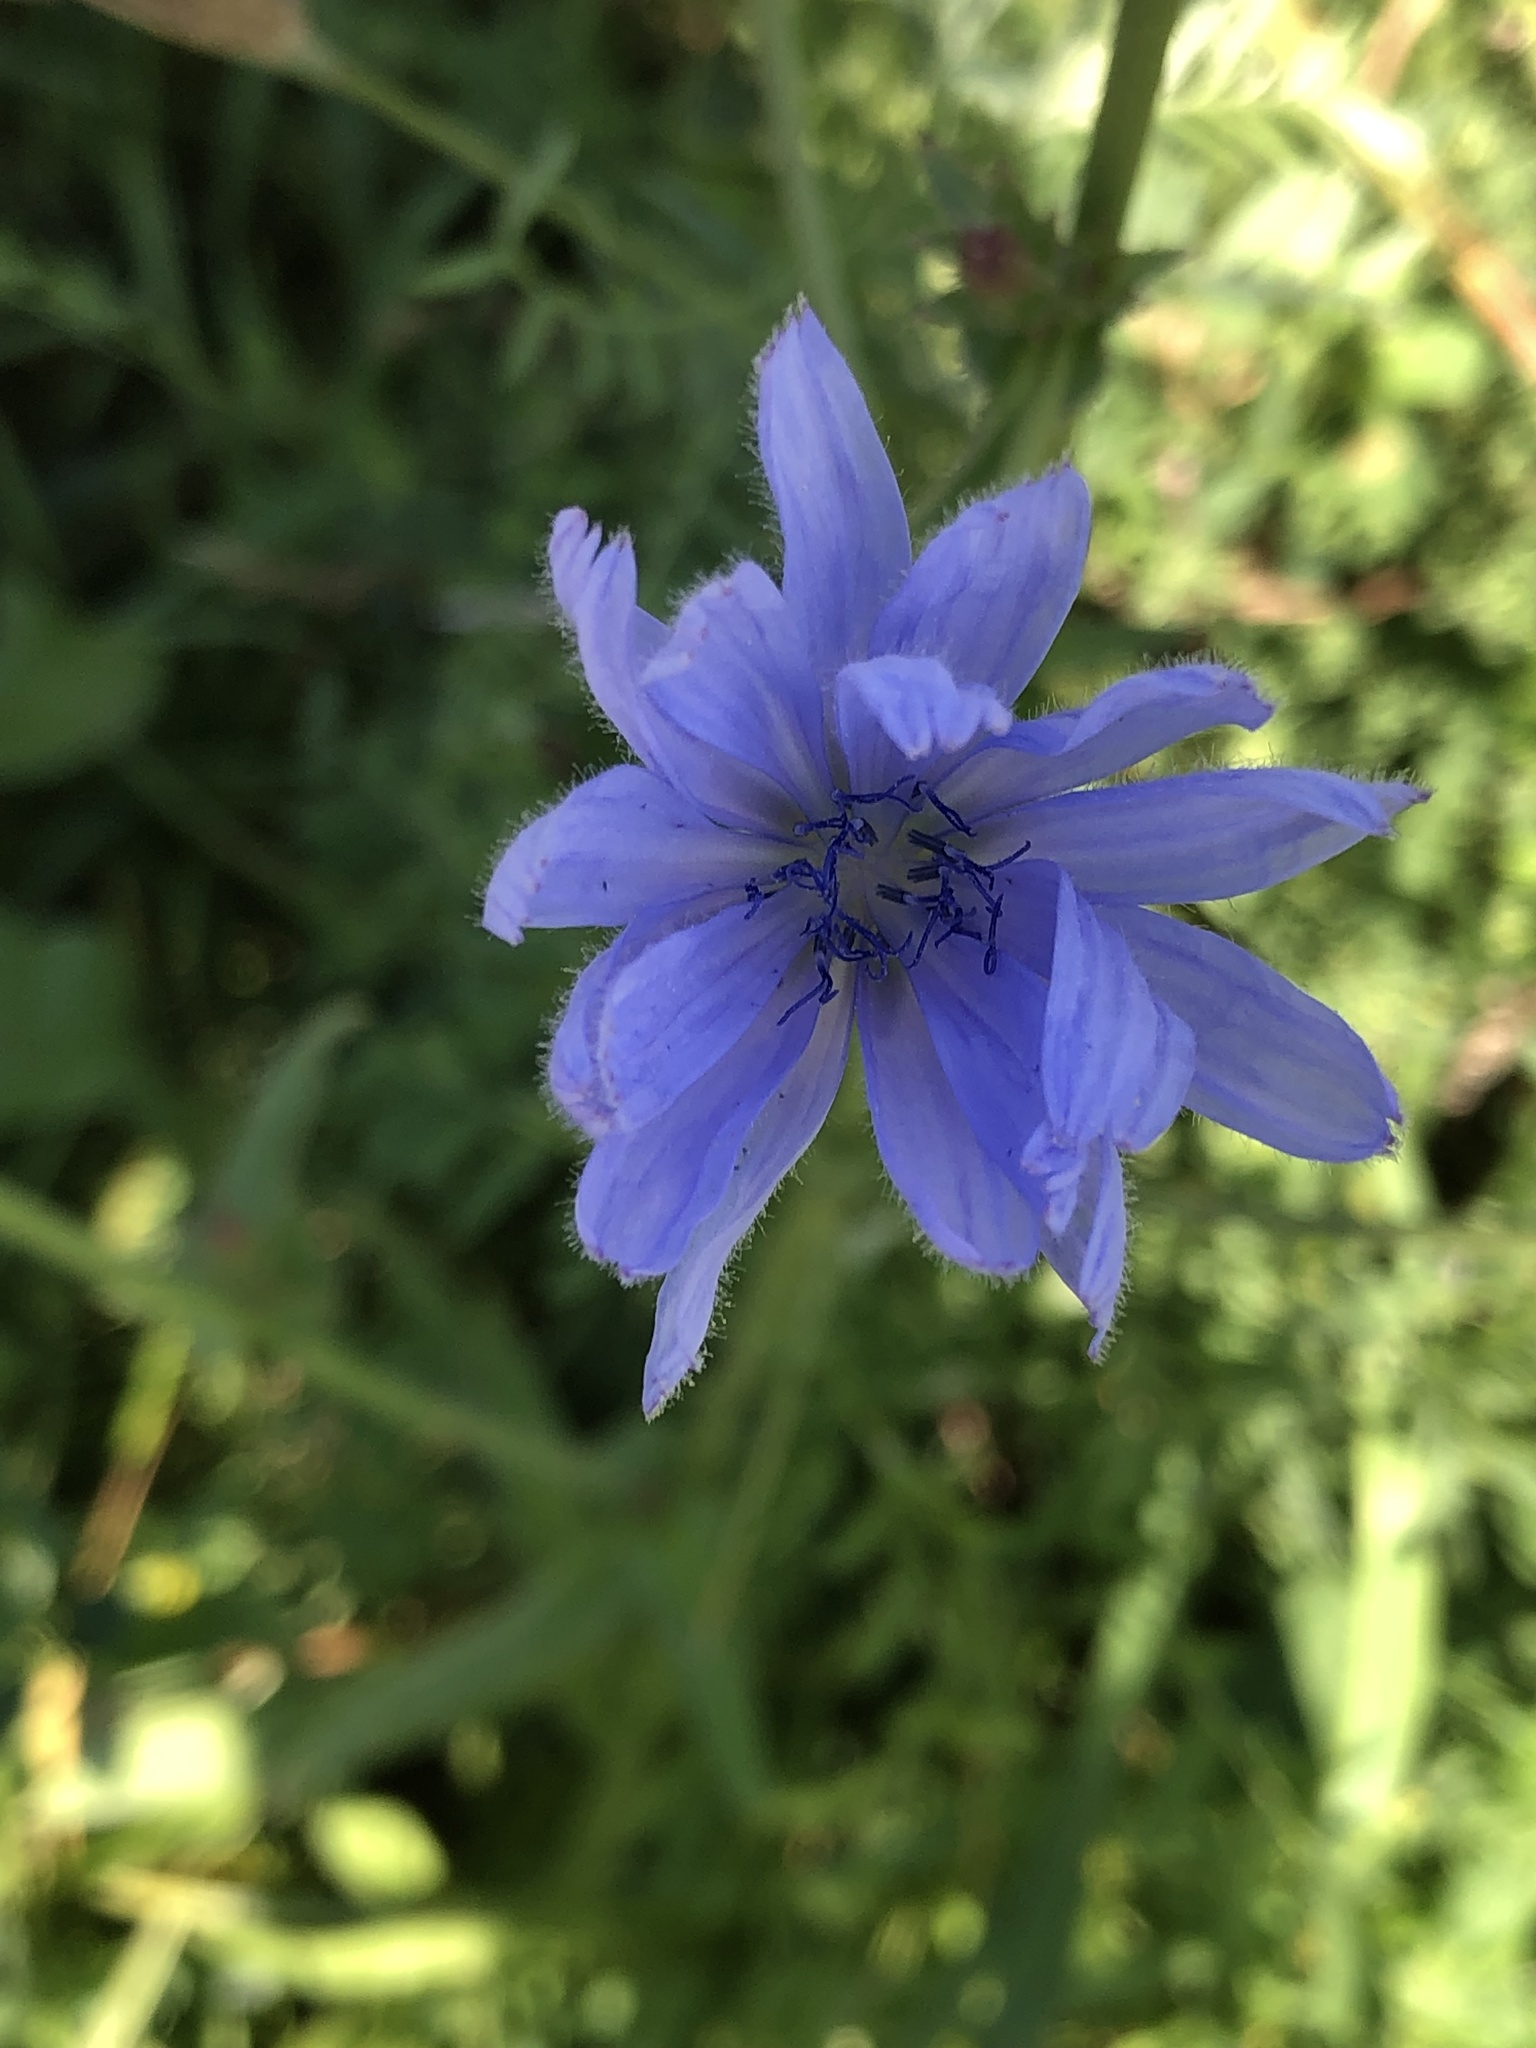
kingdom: Plantae
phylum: Tracheophyta
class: Magnoliopsida
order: Asterales
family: Asteraceae
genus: Cichorium
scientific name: Cichorium intybus
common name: Chicory
